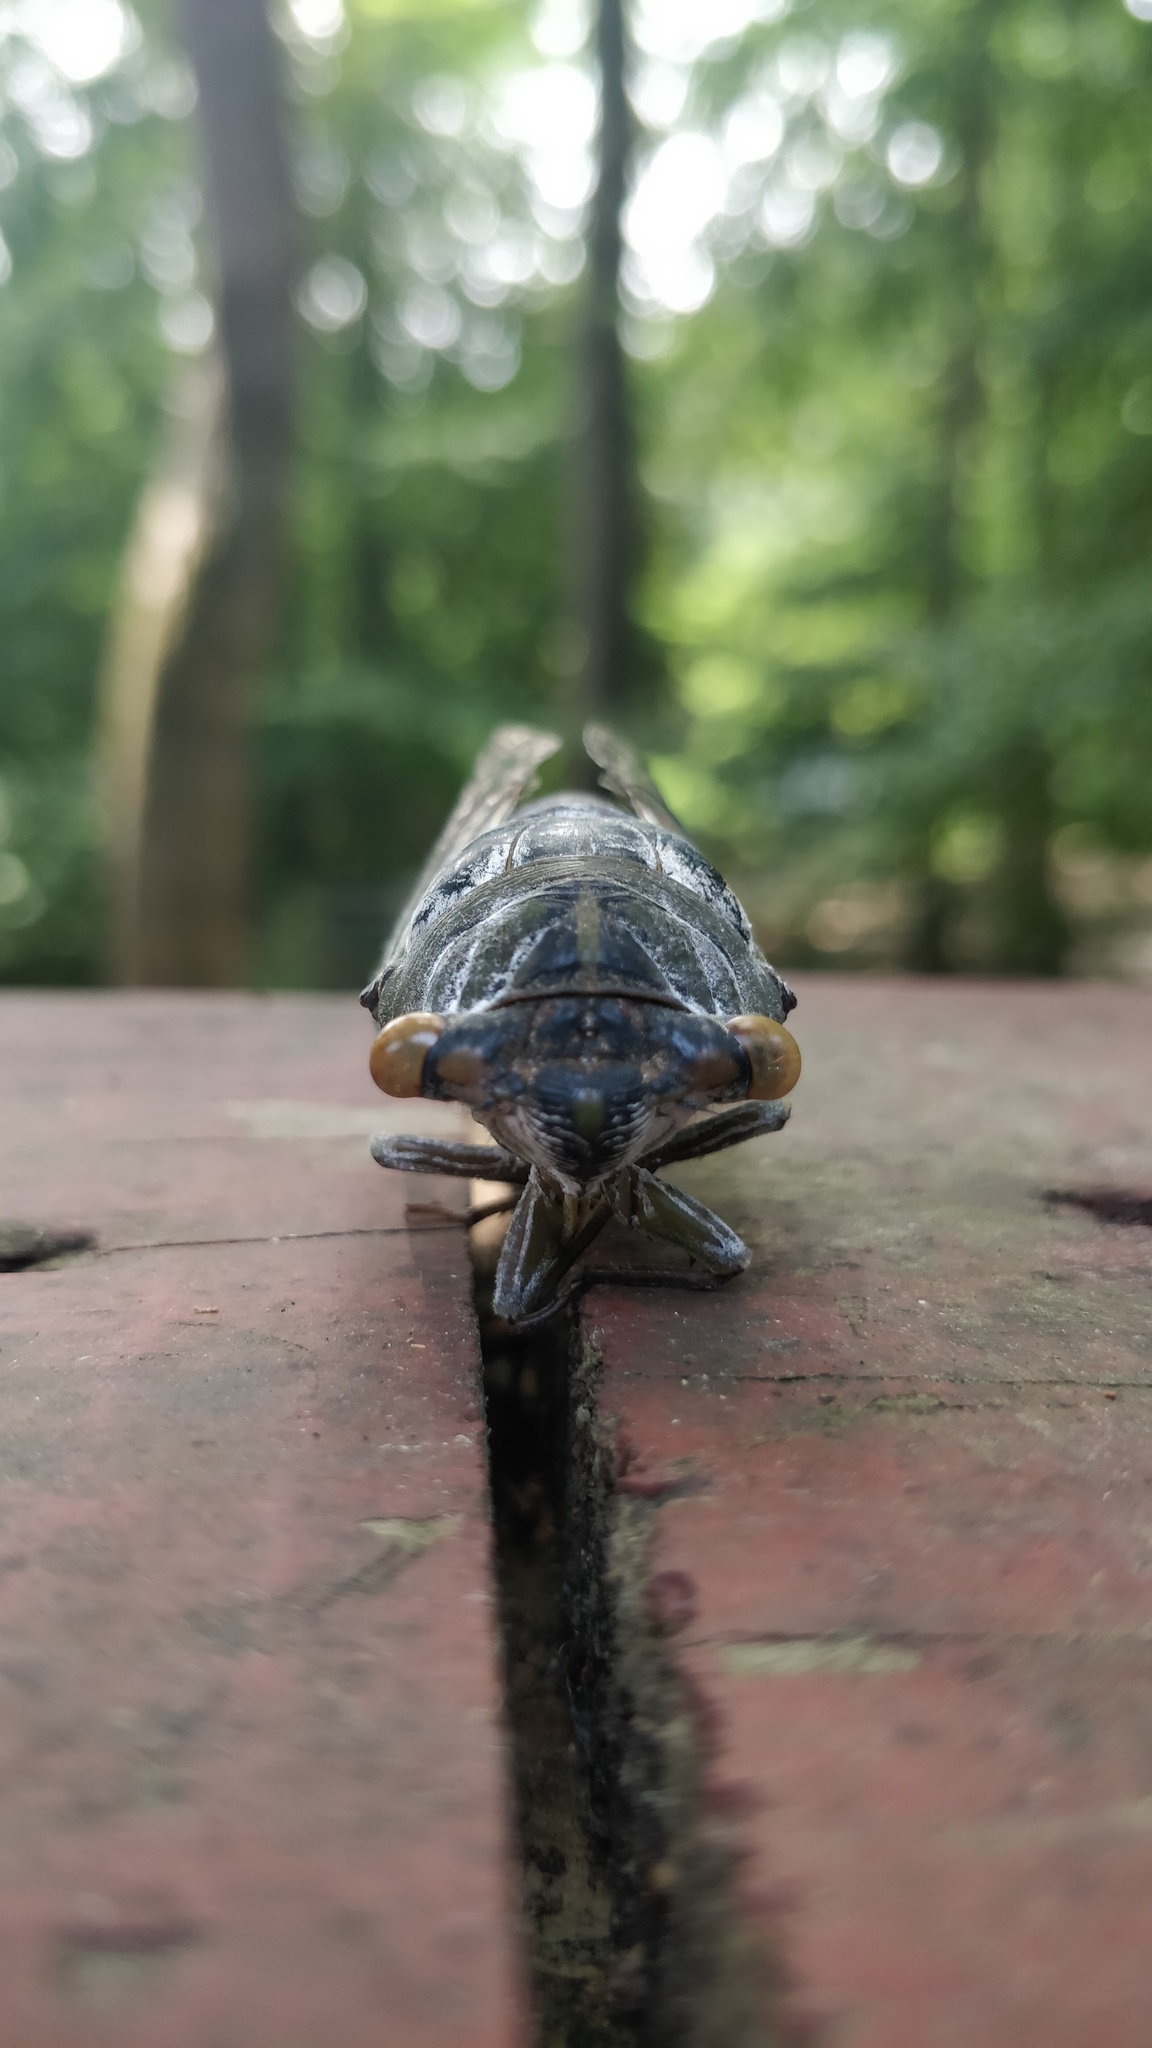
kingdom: Animalia
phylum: Arthropoda
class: Insecta
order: Hemiptera
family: Cicadidae
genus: Diceroprocta
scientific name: Diceroprocta grossa
